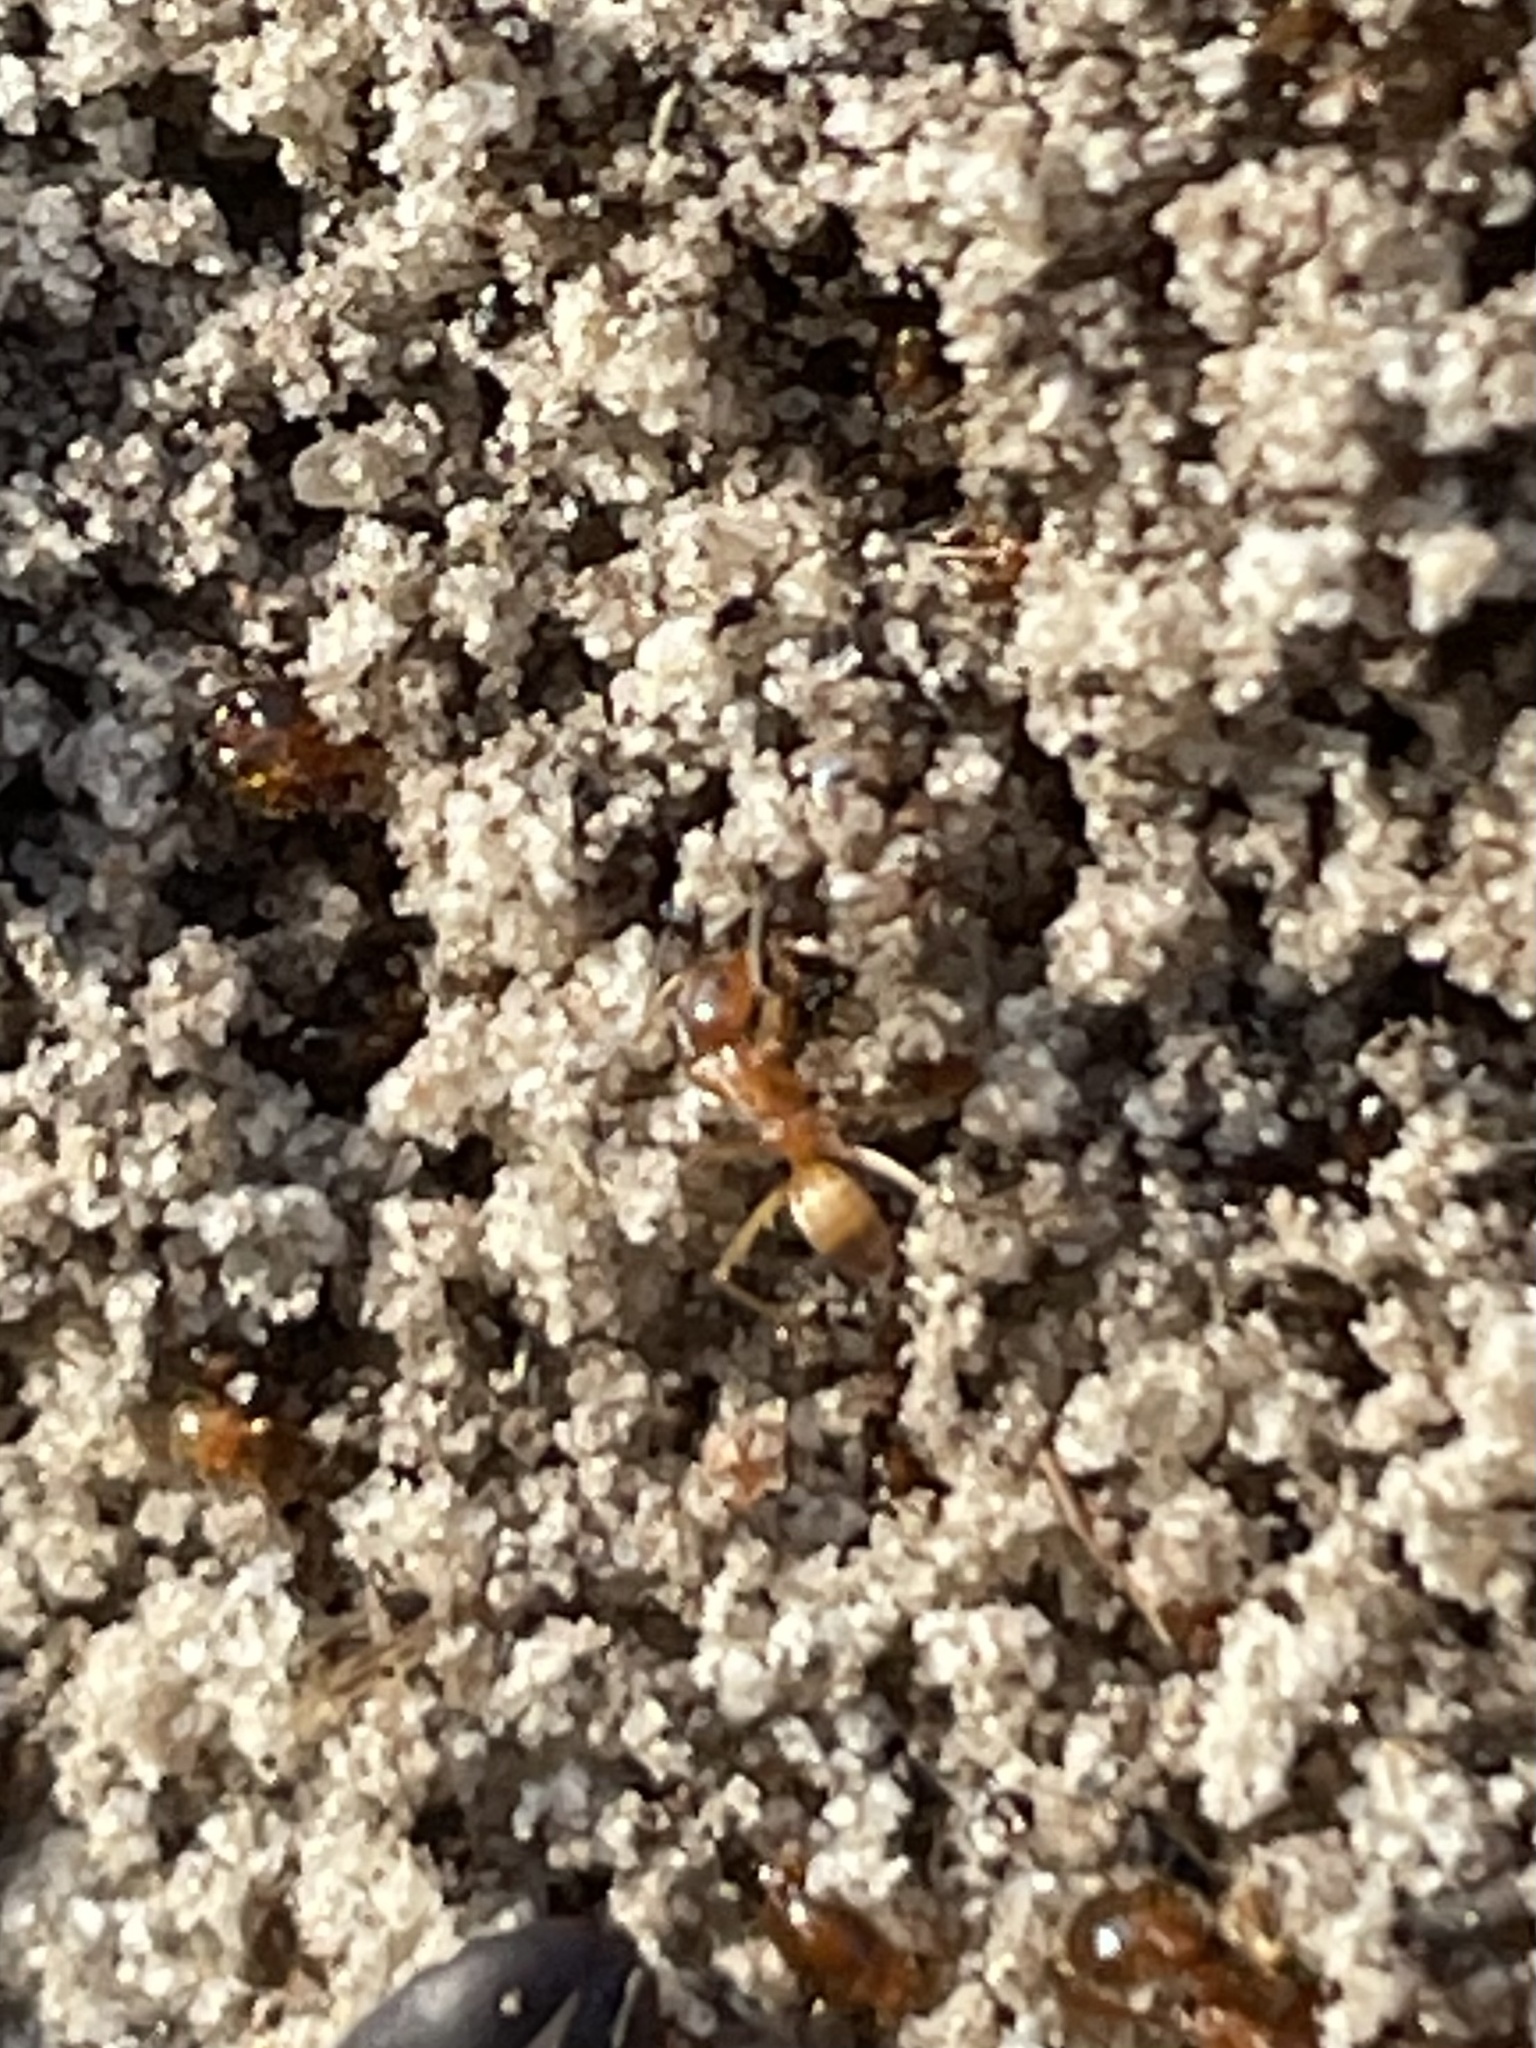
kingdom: Animalia
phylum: Arthropoda
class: Insecta
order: Hymenoptera
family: Formicidae
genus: Dorymyrmex
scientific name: Dorymyrmex flavus
